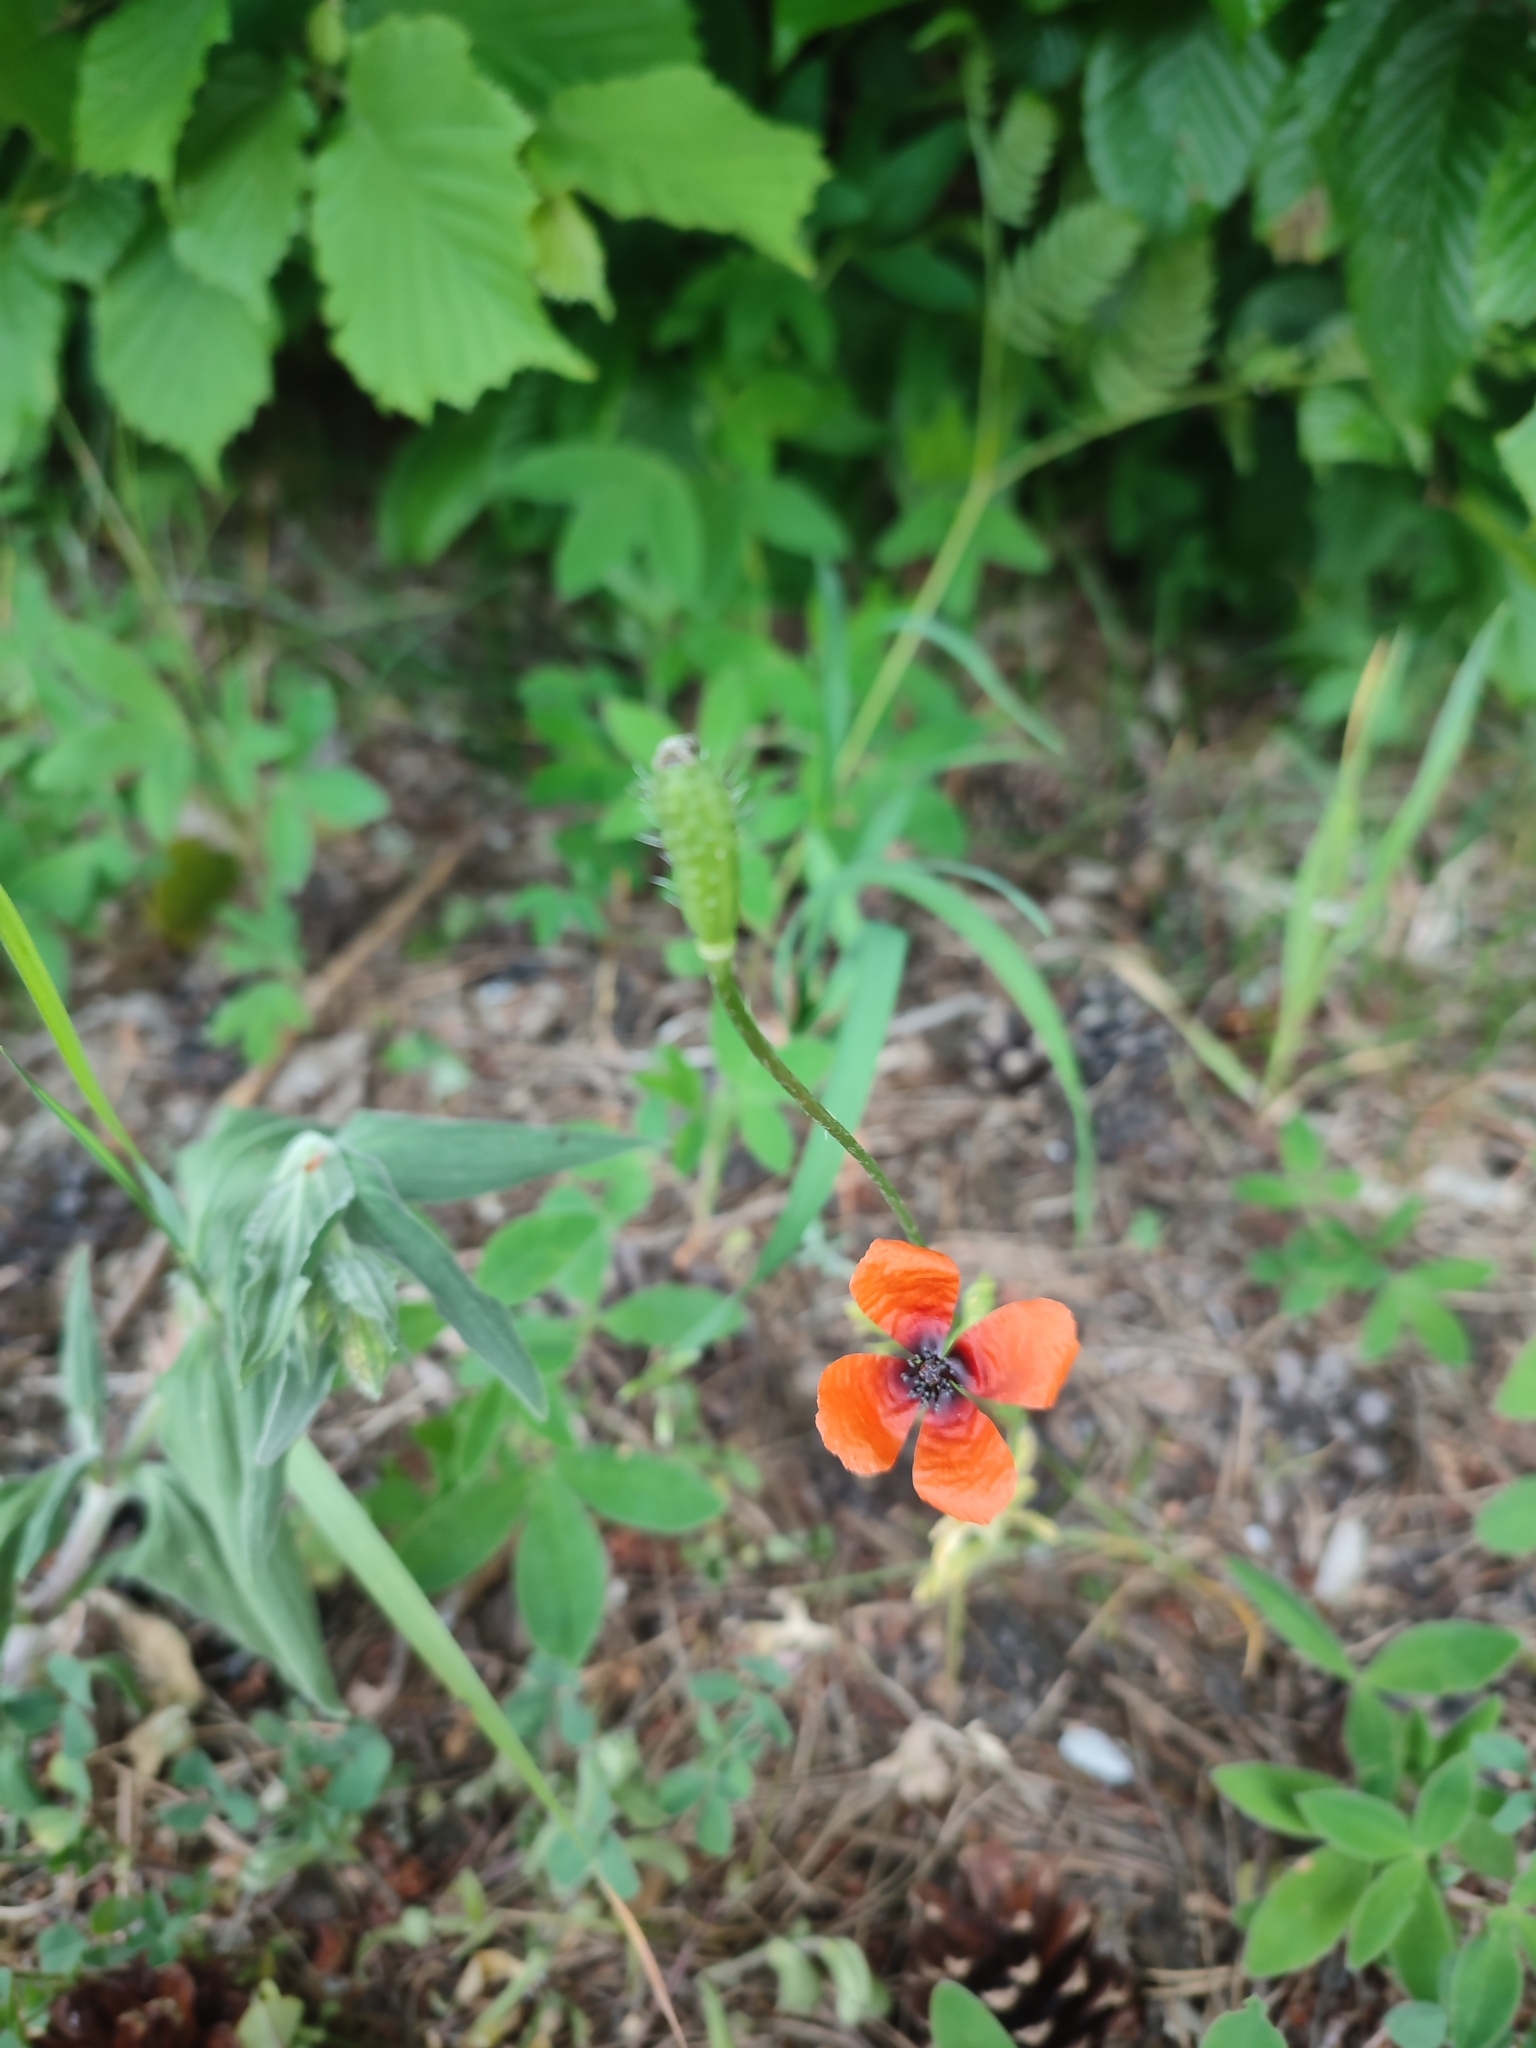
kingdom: Plantae
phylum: Tracheophyta
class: Magnoliopsida
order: Ranunculales
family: Papaveraceae
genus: Roemeria
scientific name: Roemeria argemone
